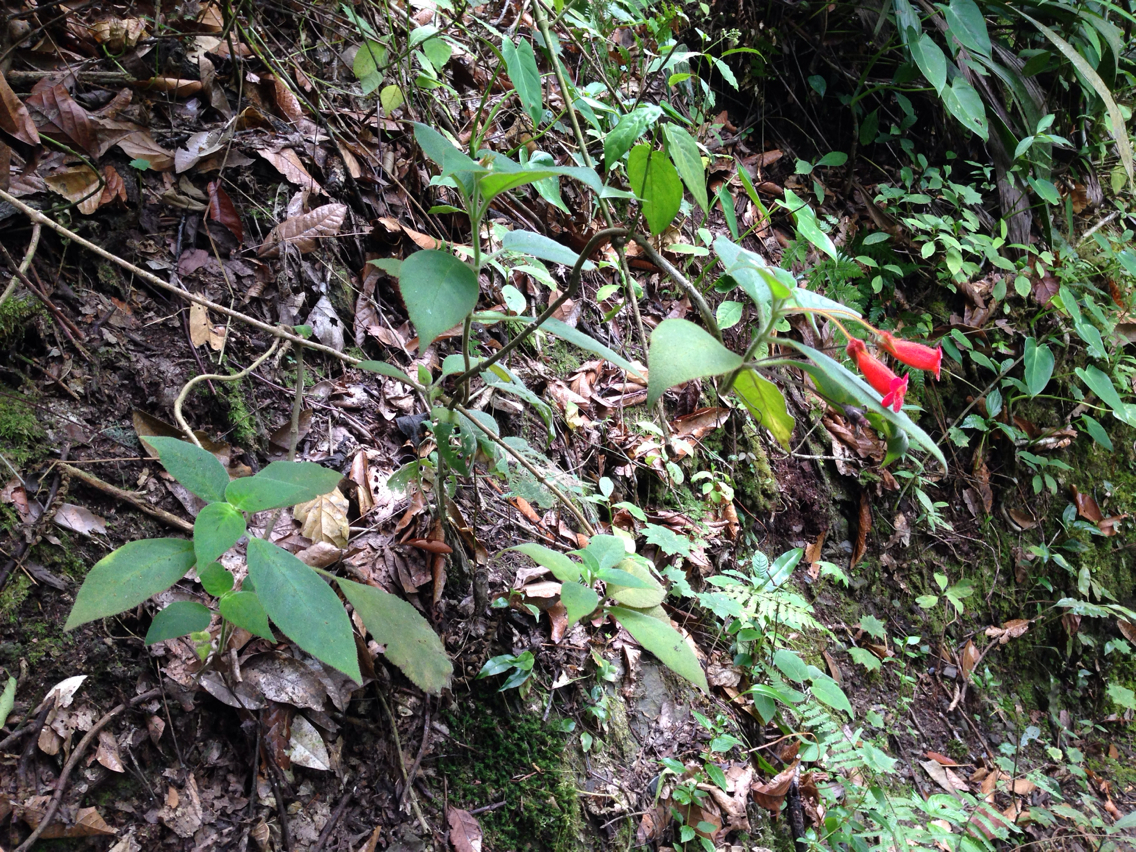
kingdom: Plantae
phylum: Tracheophyta
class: Magnoliopsida
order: Lamiales
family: Gesneriaceae
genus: Kohleria
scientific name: Kohleria hirsuta
